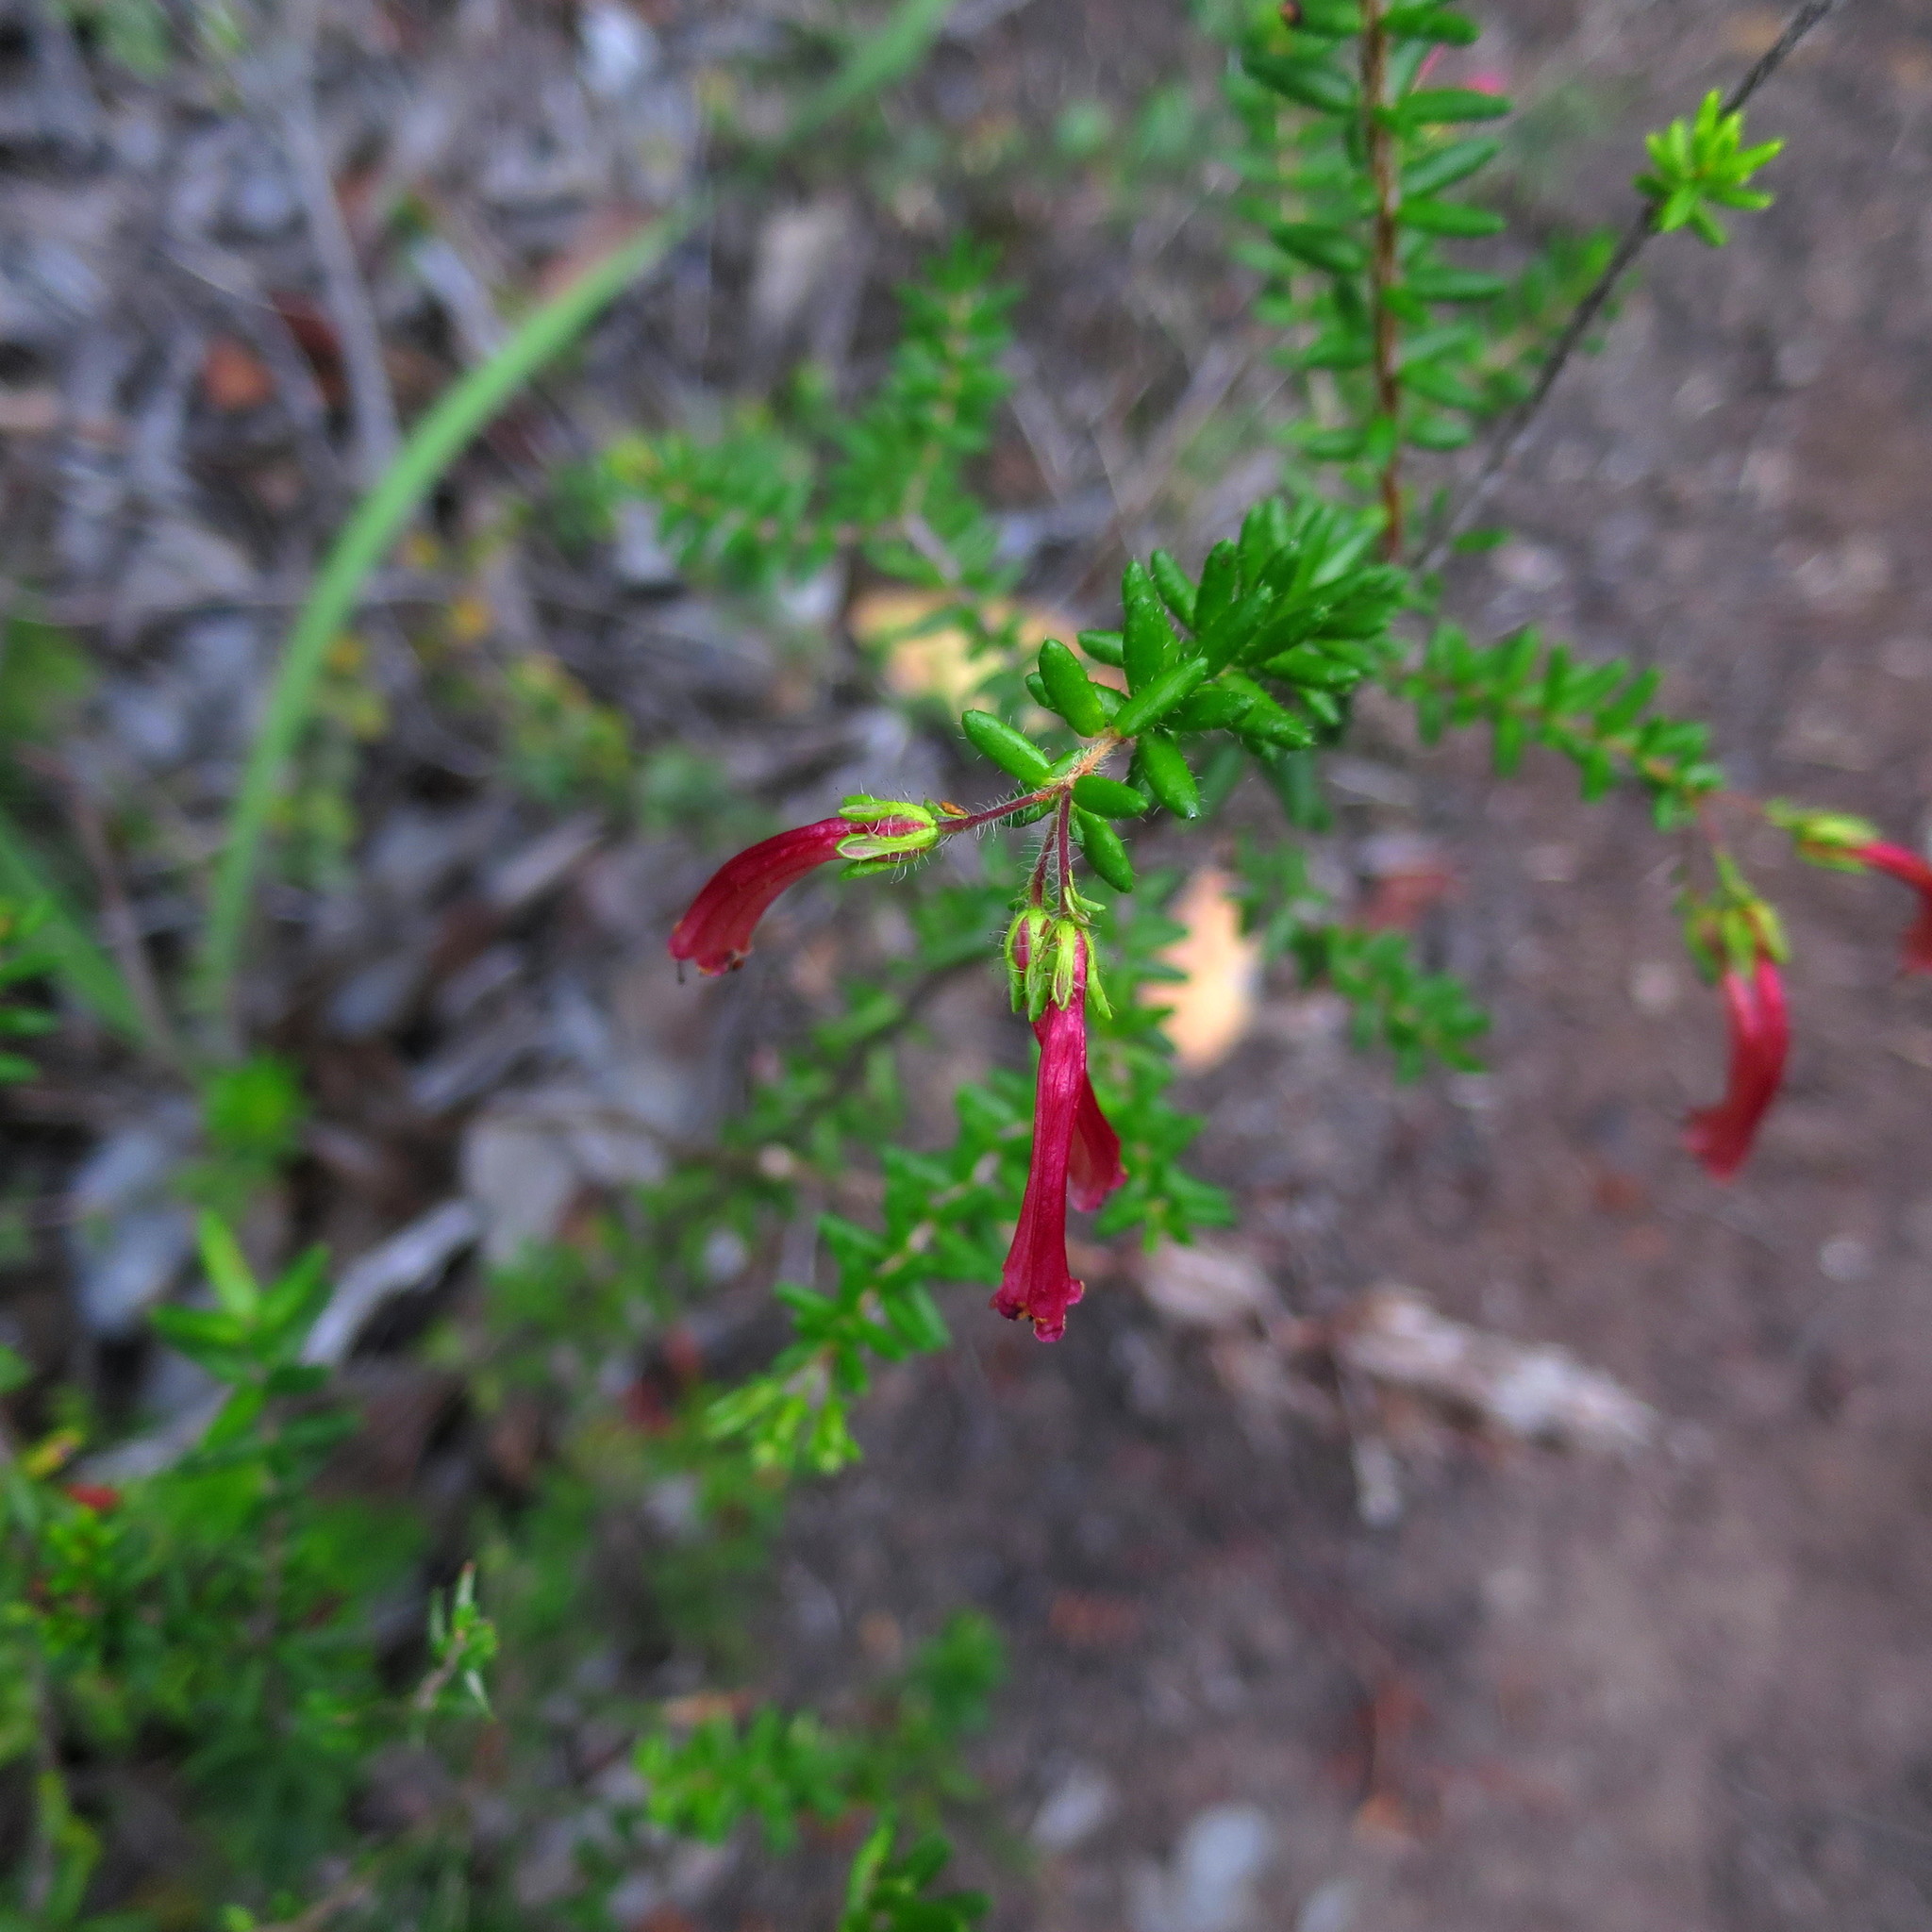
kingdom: Plantae
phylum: Tracheophyta
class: Magnoliopsida
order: Ericales
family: Ericaceae
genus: Erica
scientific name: Erica glandulosa
